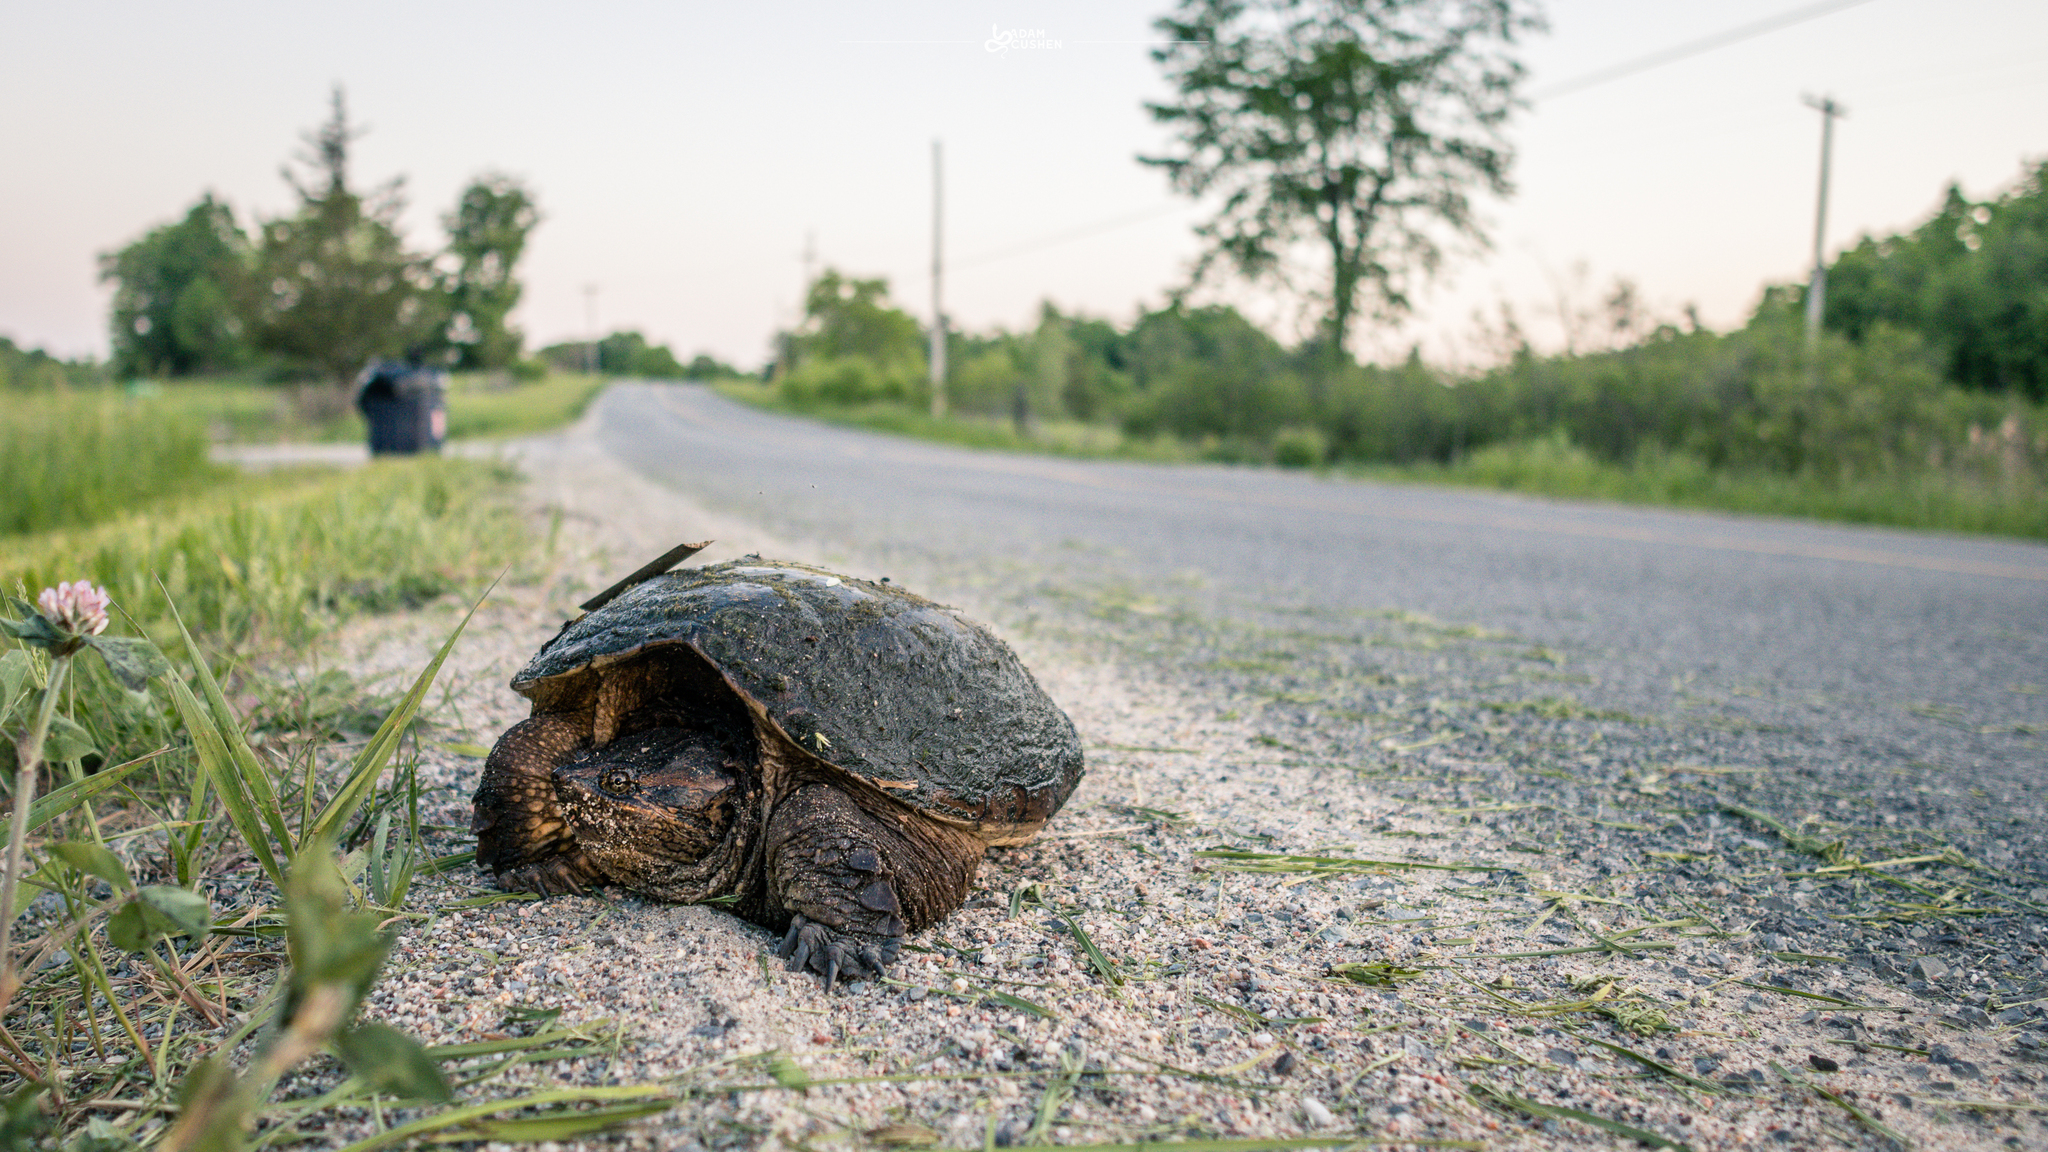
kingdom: Animalia
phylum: Chordata
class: Testudines
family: Chelydridae
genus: Chelydra
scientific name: Chelydra serpentina
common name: Common snapping turtle
